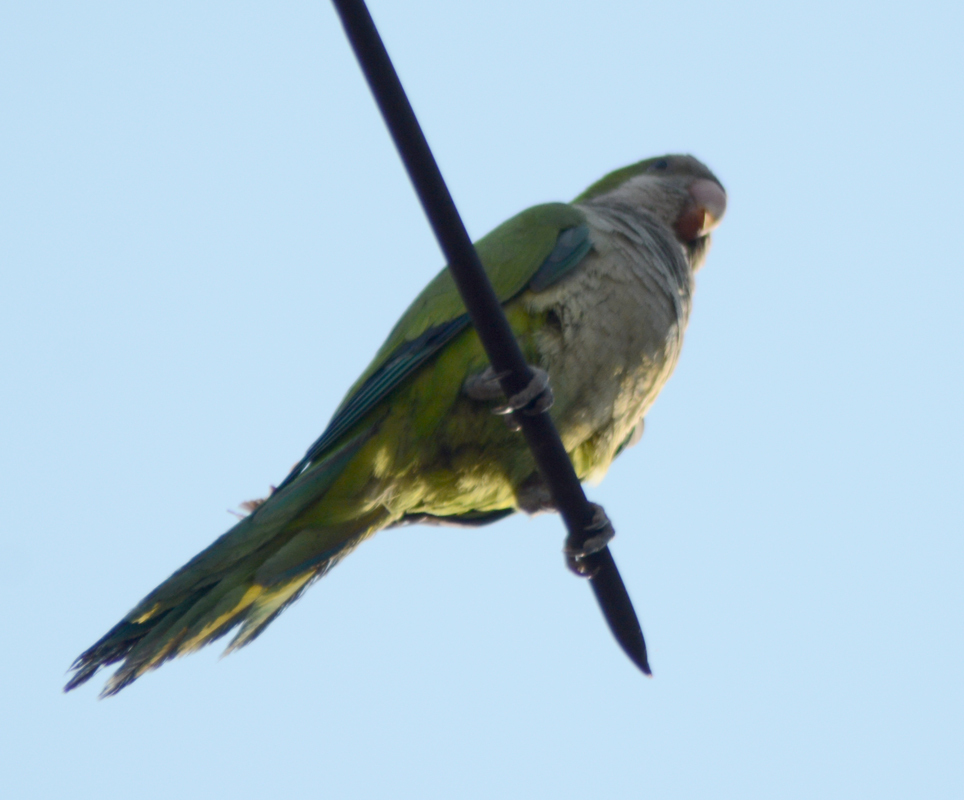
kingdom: Animalia
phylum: Chordata
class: Aves
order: Psittaciformes
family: Psittacidae
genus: Myiopsitta
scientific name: Myiopsitta monachus
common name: Monk parakeet
